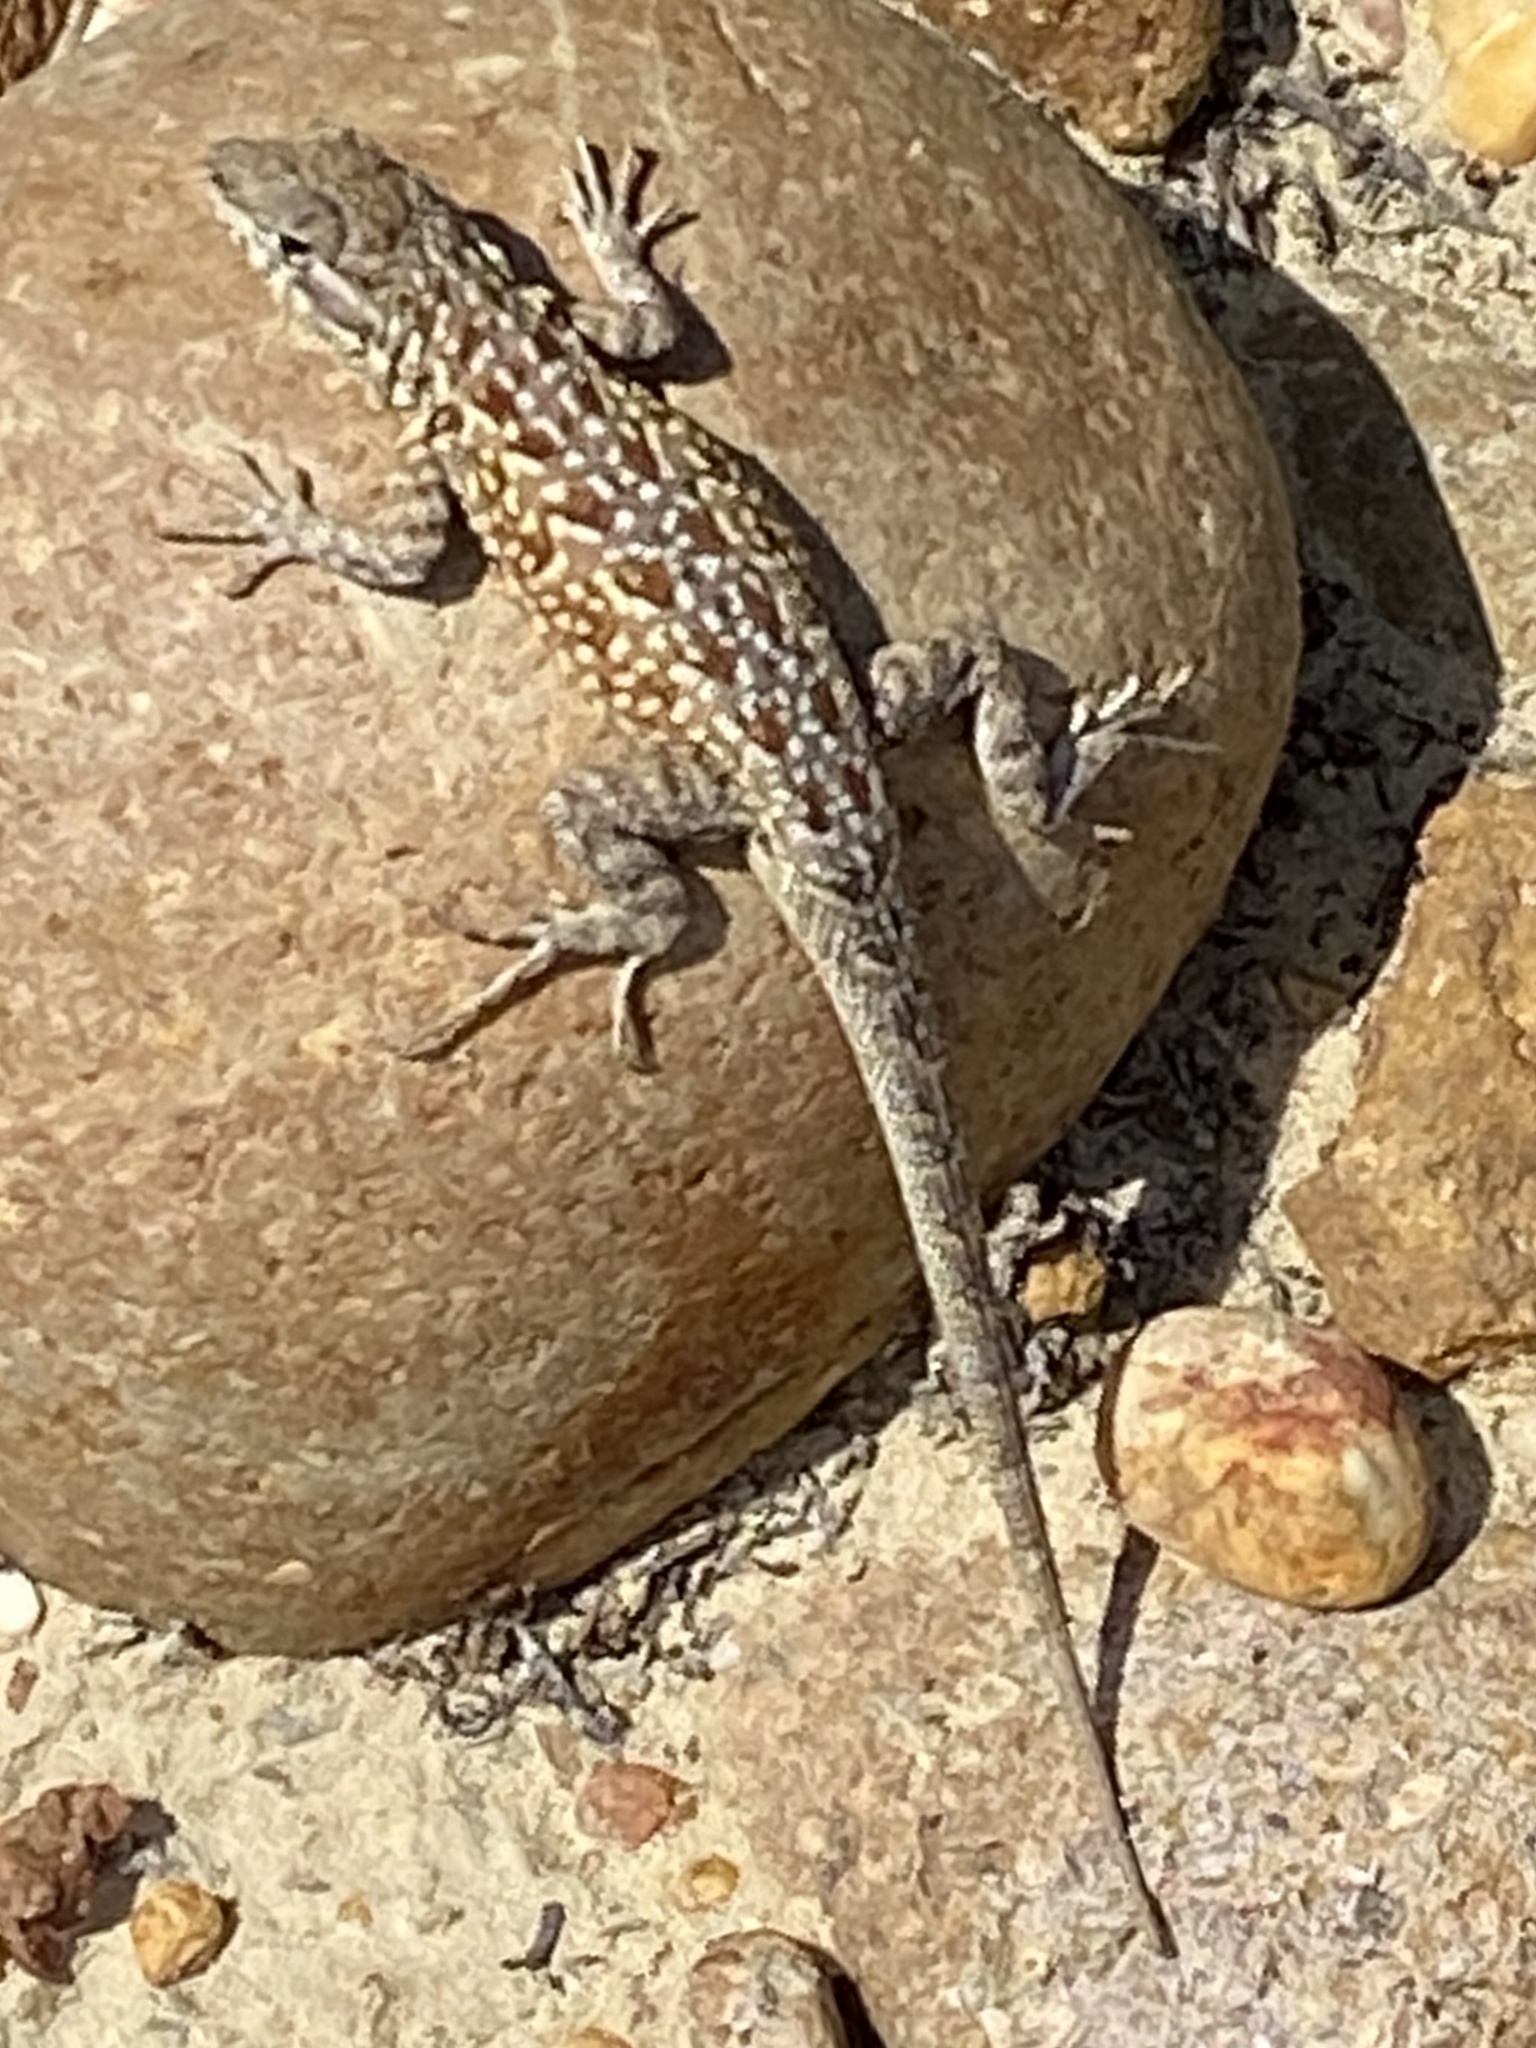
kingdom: Animalia
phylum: Chordata
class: Squamata
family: Phrynosomatidae
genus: Uta
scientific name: Uta stansburiana
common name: Side-blotched lizard
